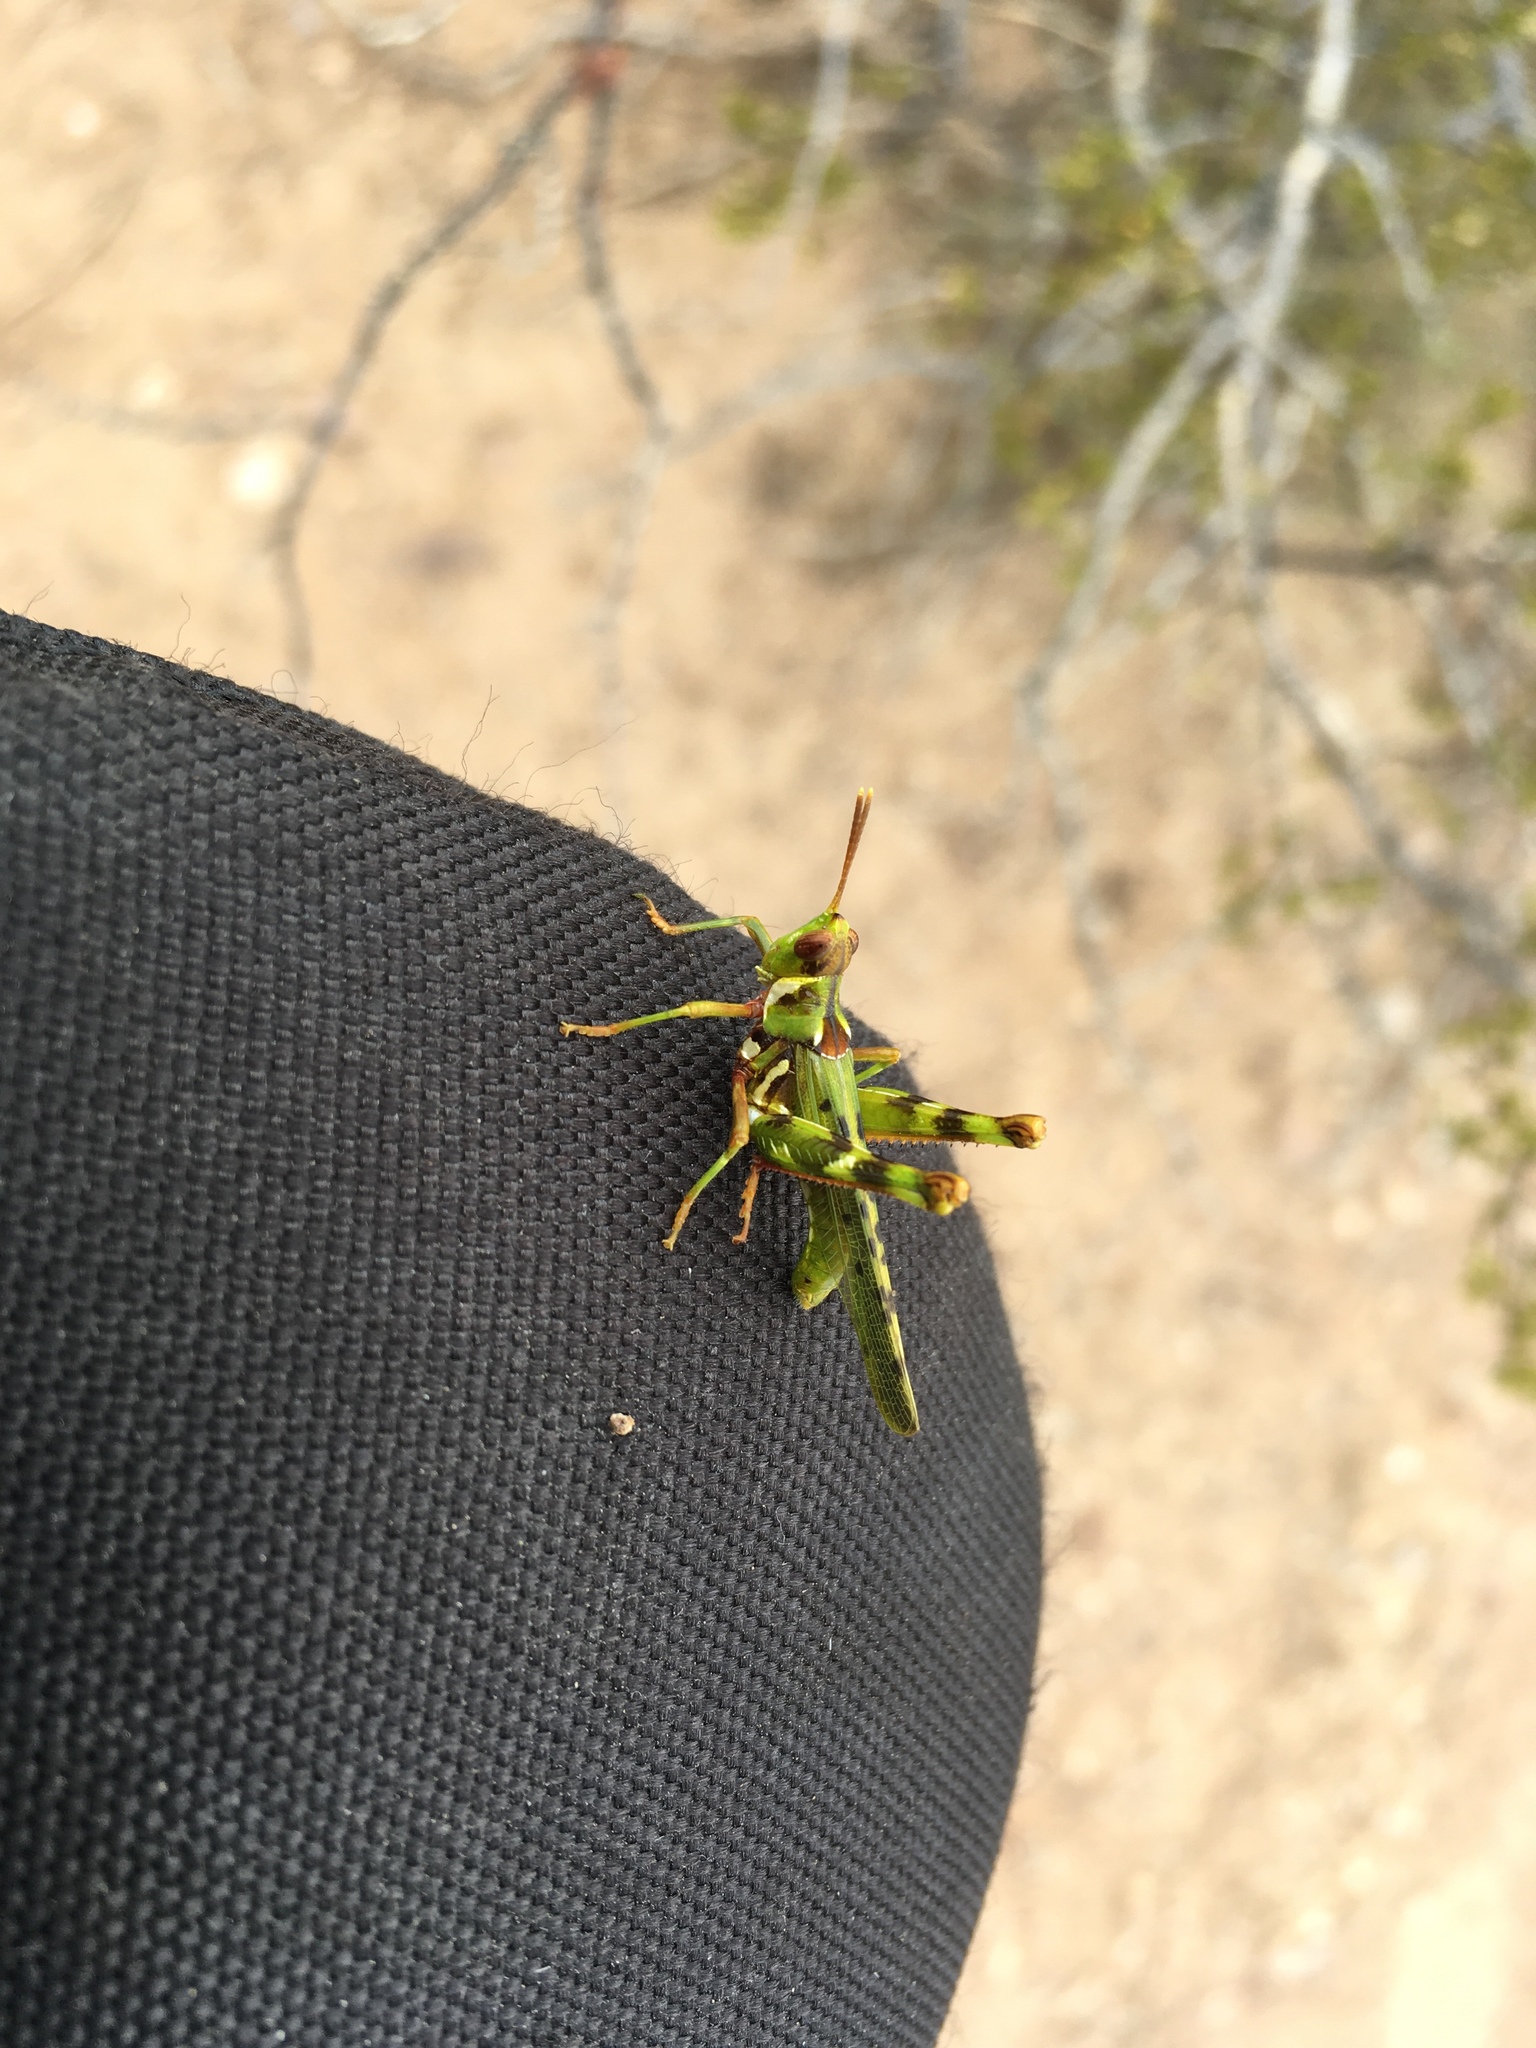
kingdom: Animalia
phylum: Arthropoda
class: Insecta
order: Orthoptera
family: Acrididae
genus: Bootettix
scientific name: Bootettix argentatus
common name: Creosote bush grasshopper
